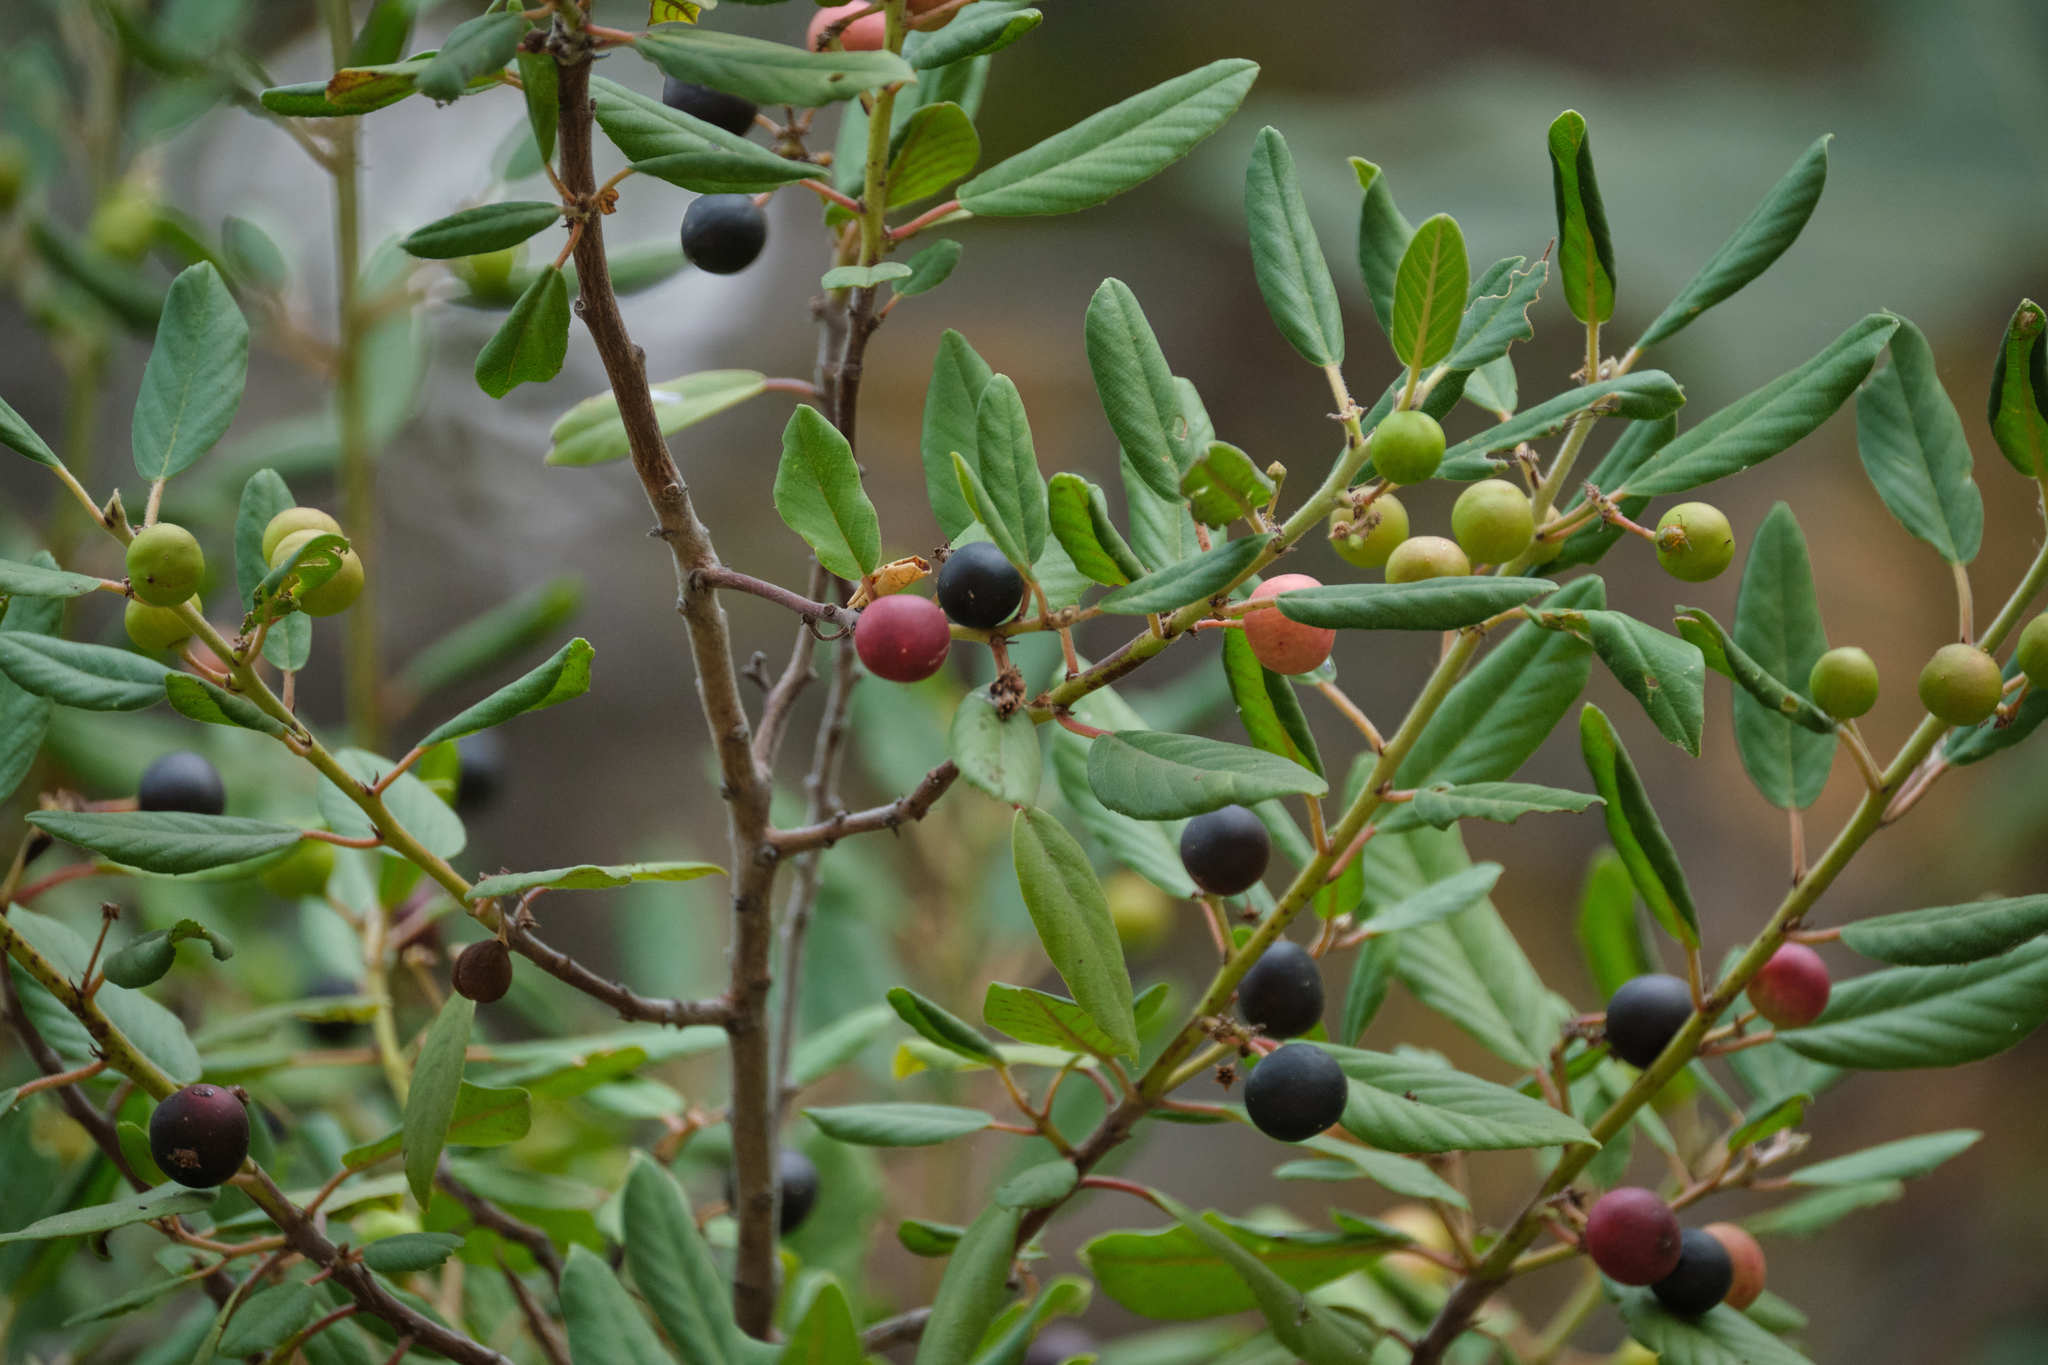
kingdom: Plantae
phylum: Tracheophyta
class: Magnoliopsida
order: Rosales
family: Rhamnaceae
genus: Frangula
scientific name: Frangula californica
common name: California buckthorn
